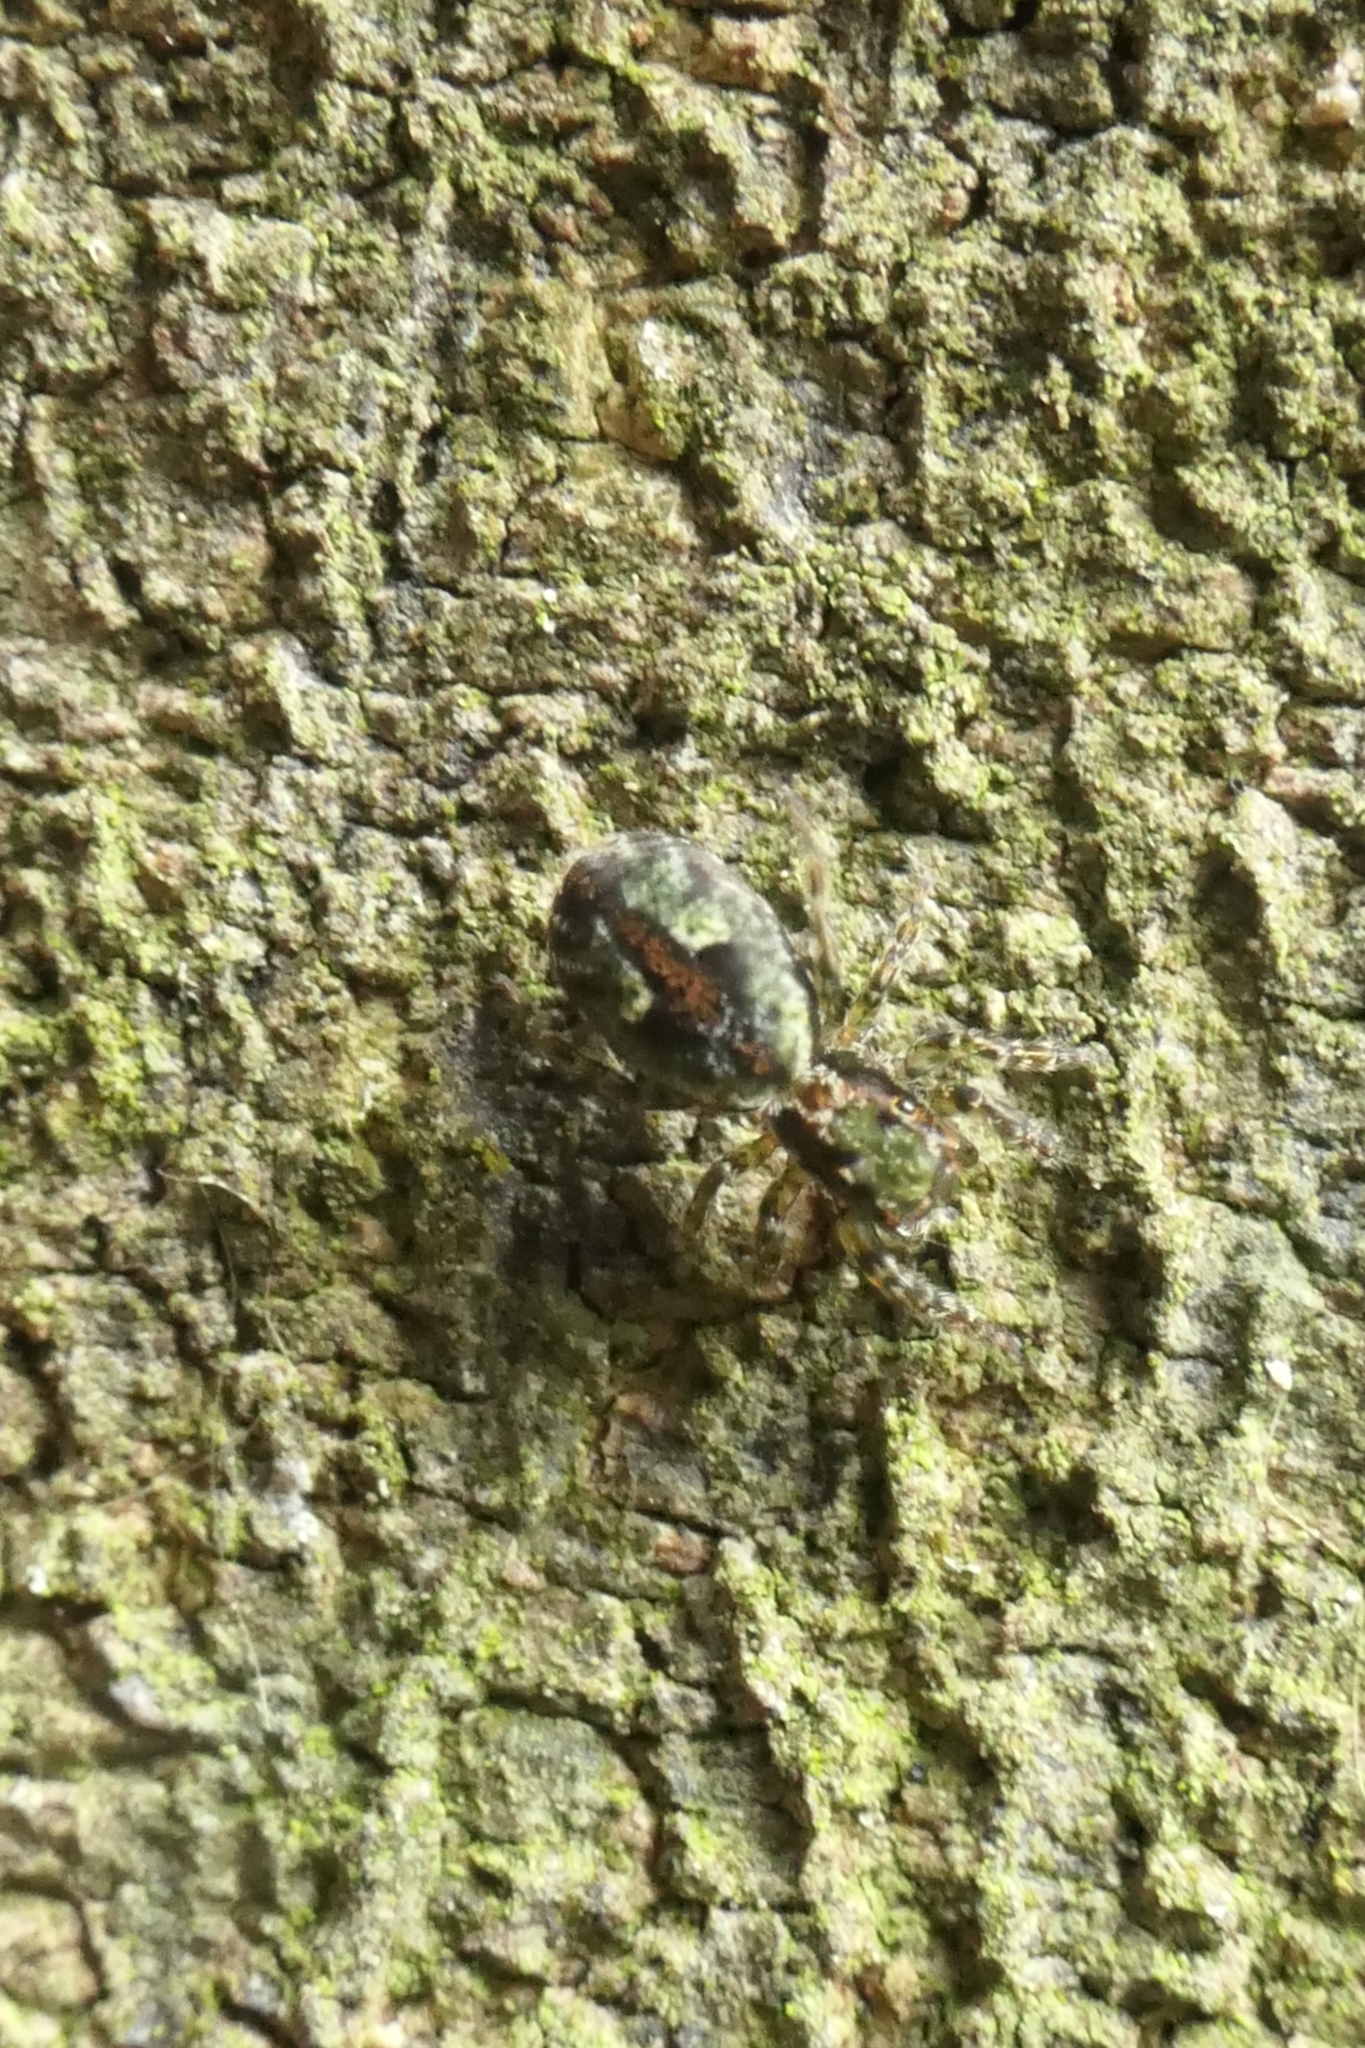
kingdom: Animalia
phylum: Arthropoda
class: Arachnida
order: Araneae
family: Salticidae
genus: Hinewaia
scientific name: Hinewaia embolica
